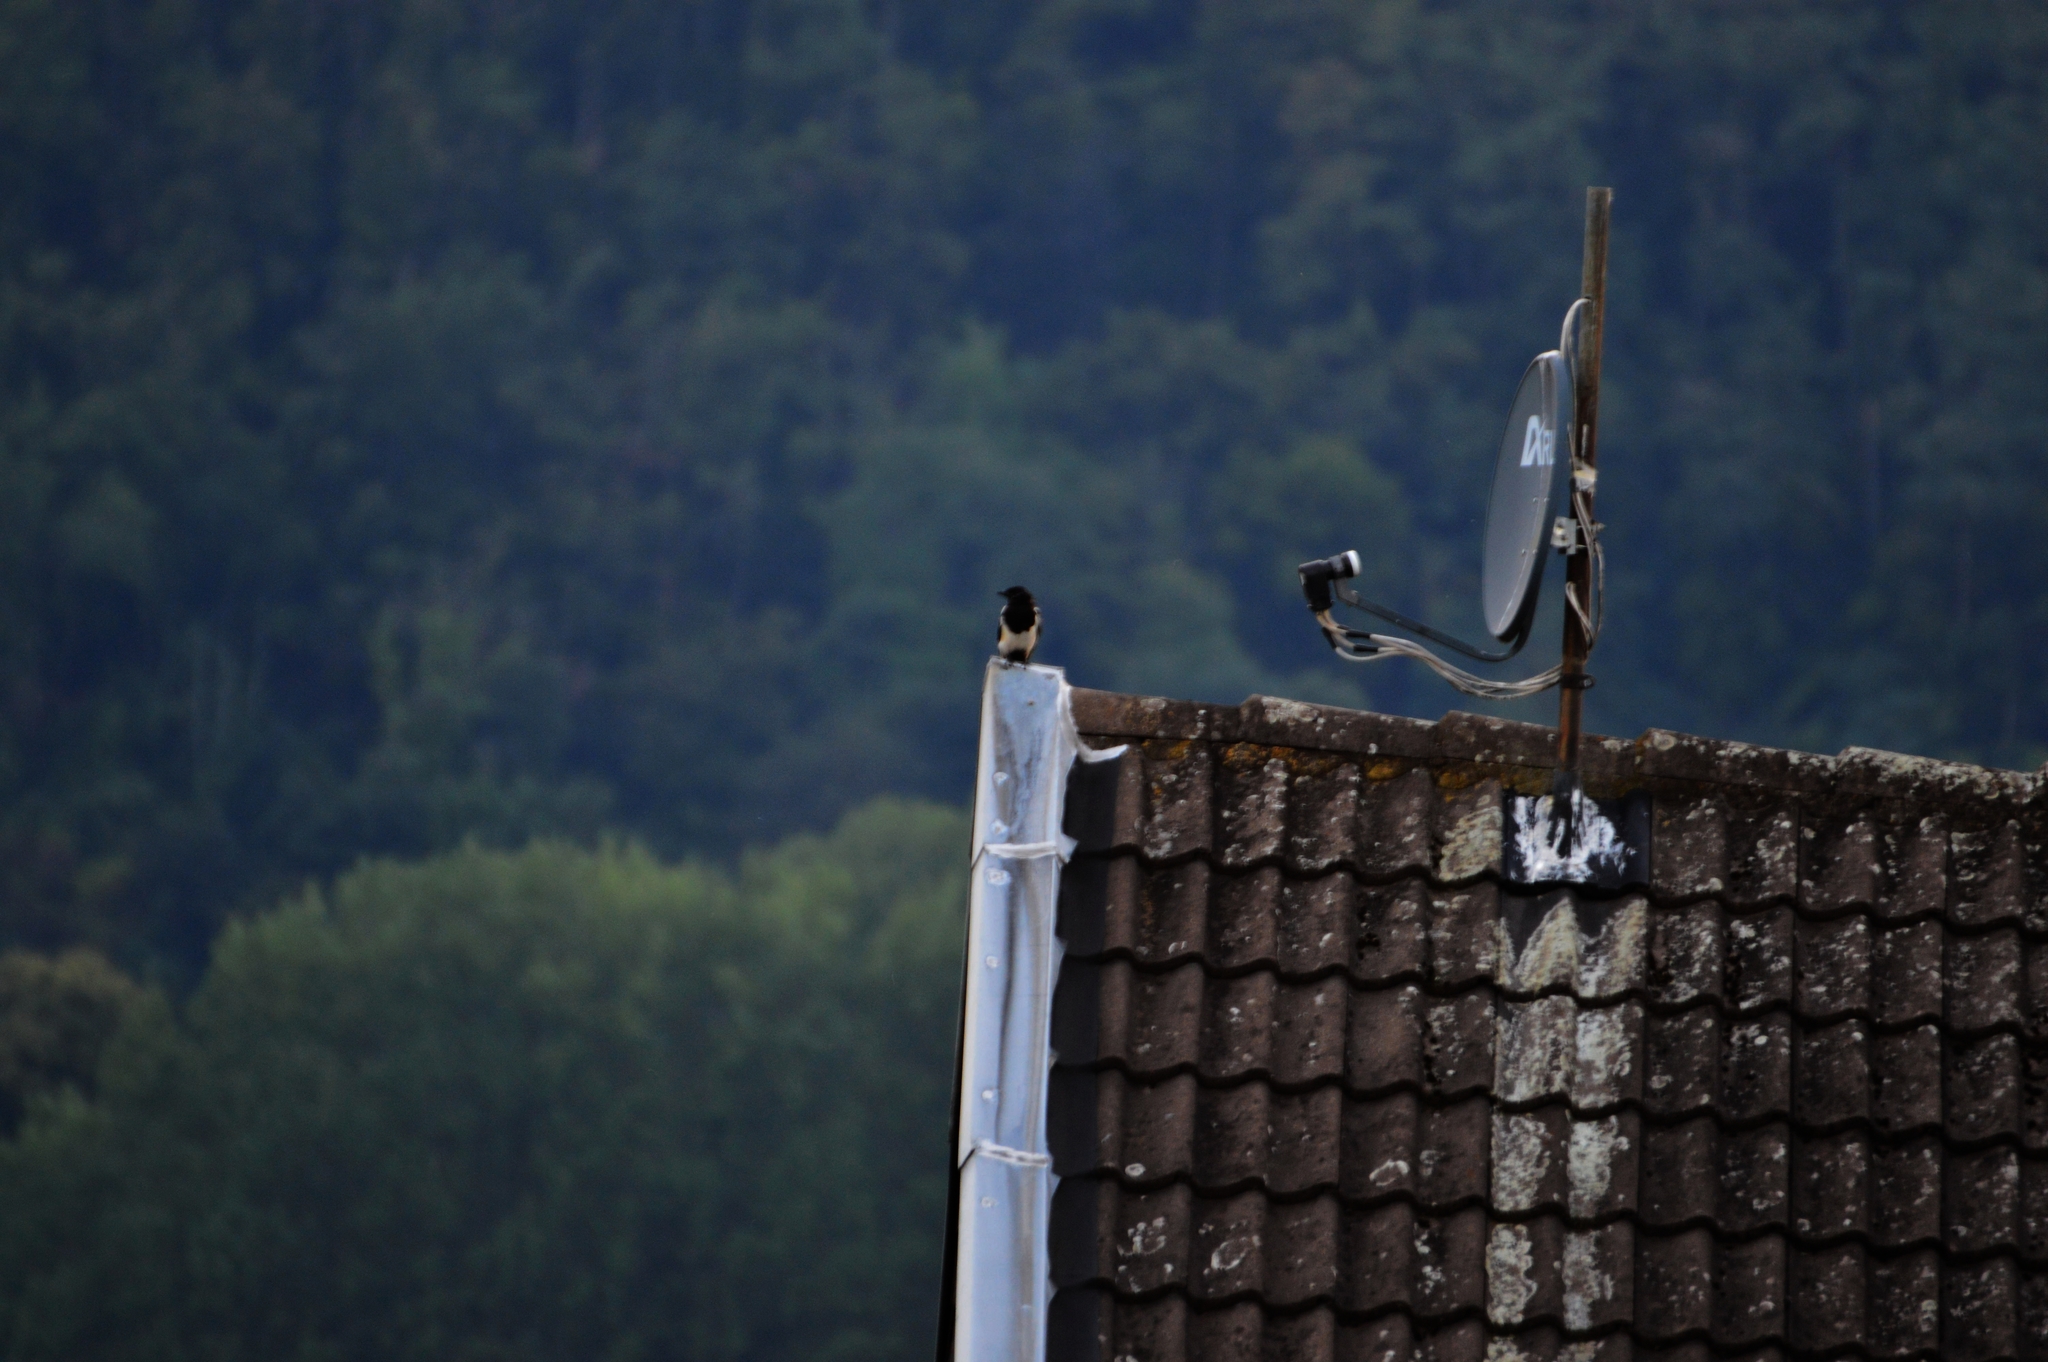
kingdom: Animalia
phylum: Chordata
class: Aves
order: Passeriformes
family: Corvidae
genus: Pica
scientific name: Pica pica
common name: Eurasian magpie
